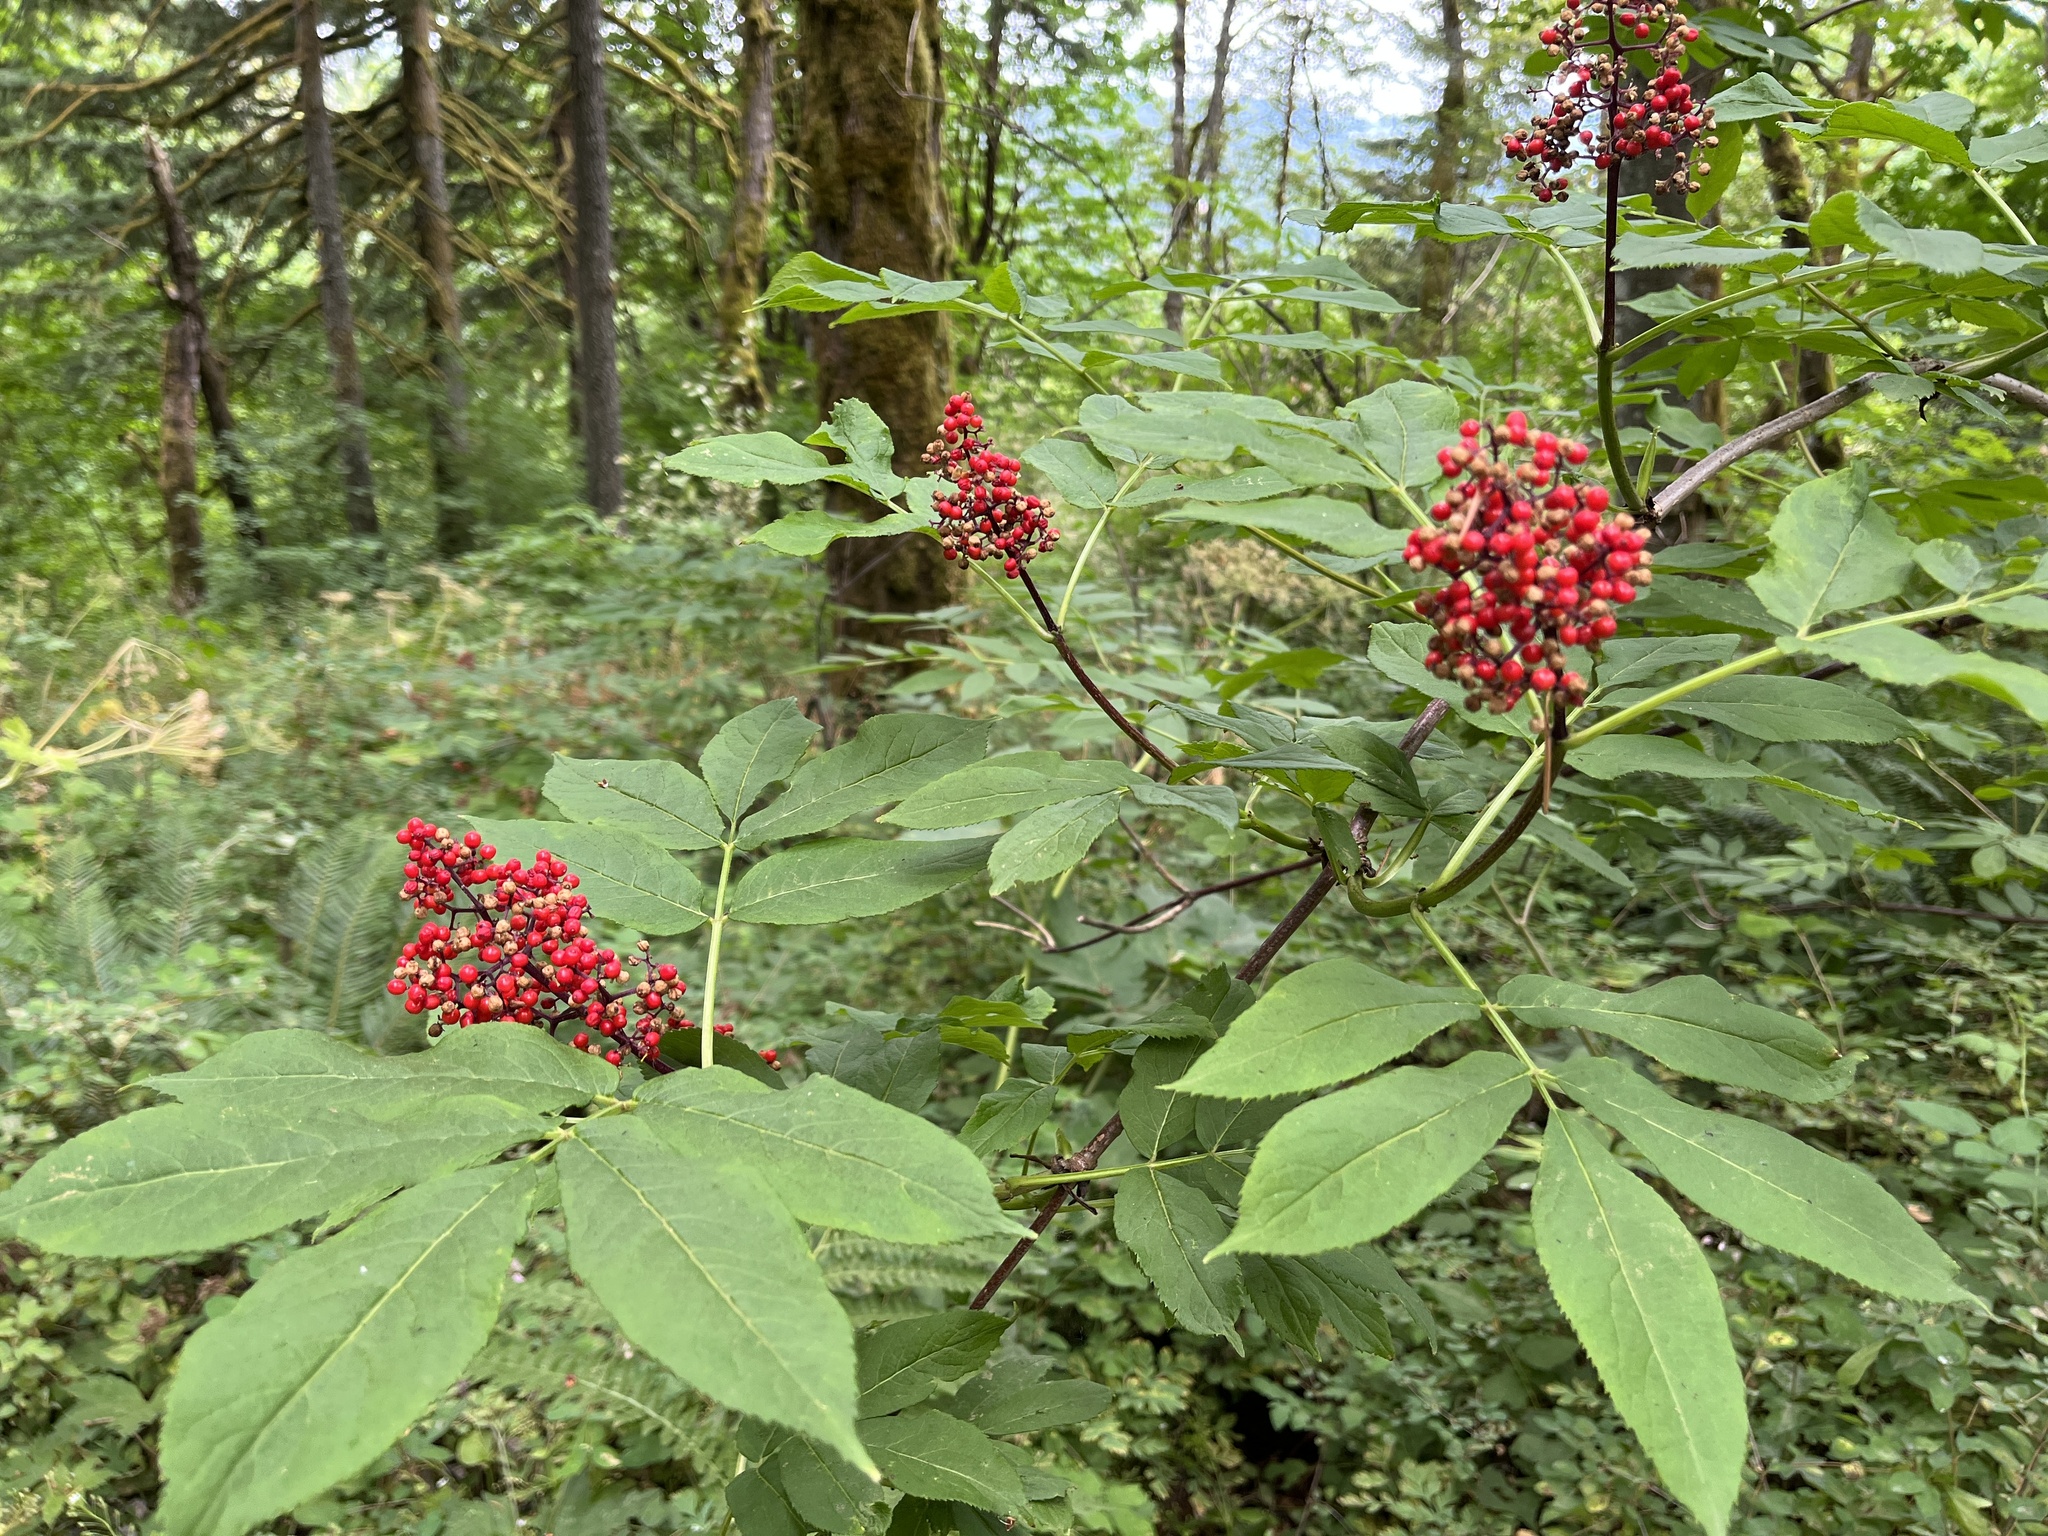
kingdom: Plantae
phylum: Tracheophyta
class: Magnoliopsida
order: Dipsacales
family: Viburnaceae
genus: Sambucus
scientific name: Sambucus racemosa
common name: Red-berried elder
